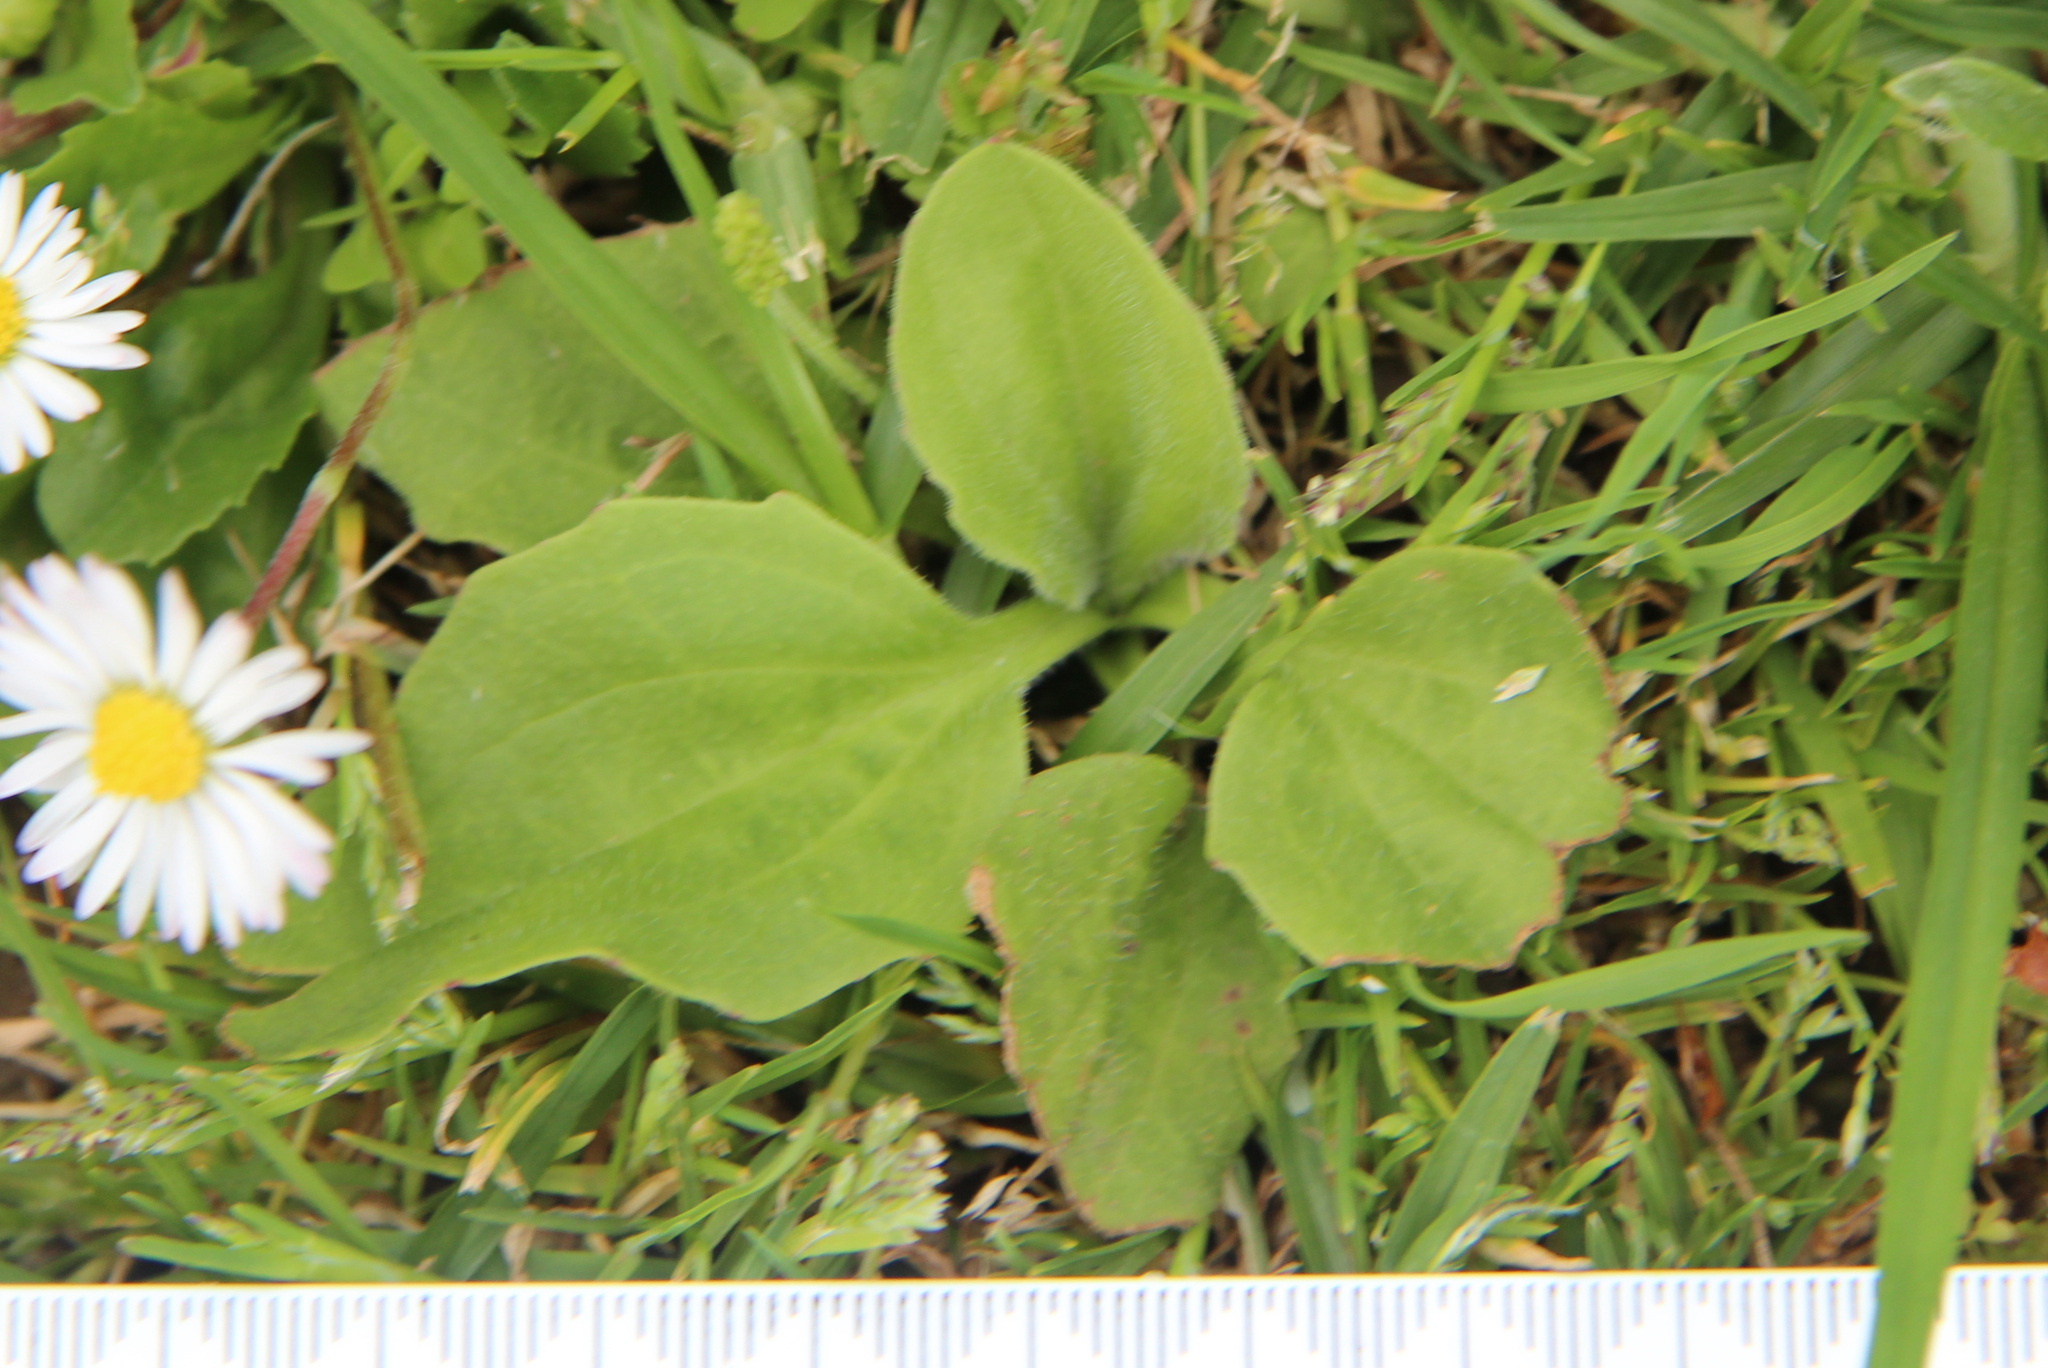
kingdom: Plantae
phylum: Tracheophyta
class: Magnoliopsida
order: Lamiales
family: Plantaginaceae
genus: Plantago
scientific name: Plantago major
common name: Common plantain
